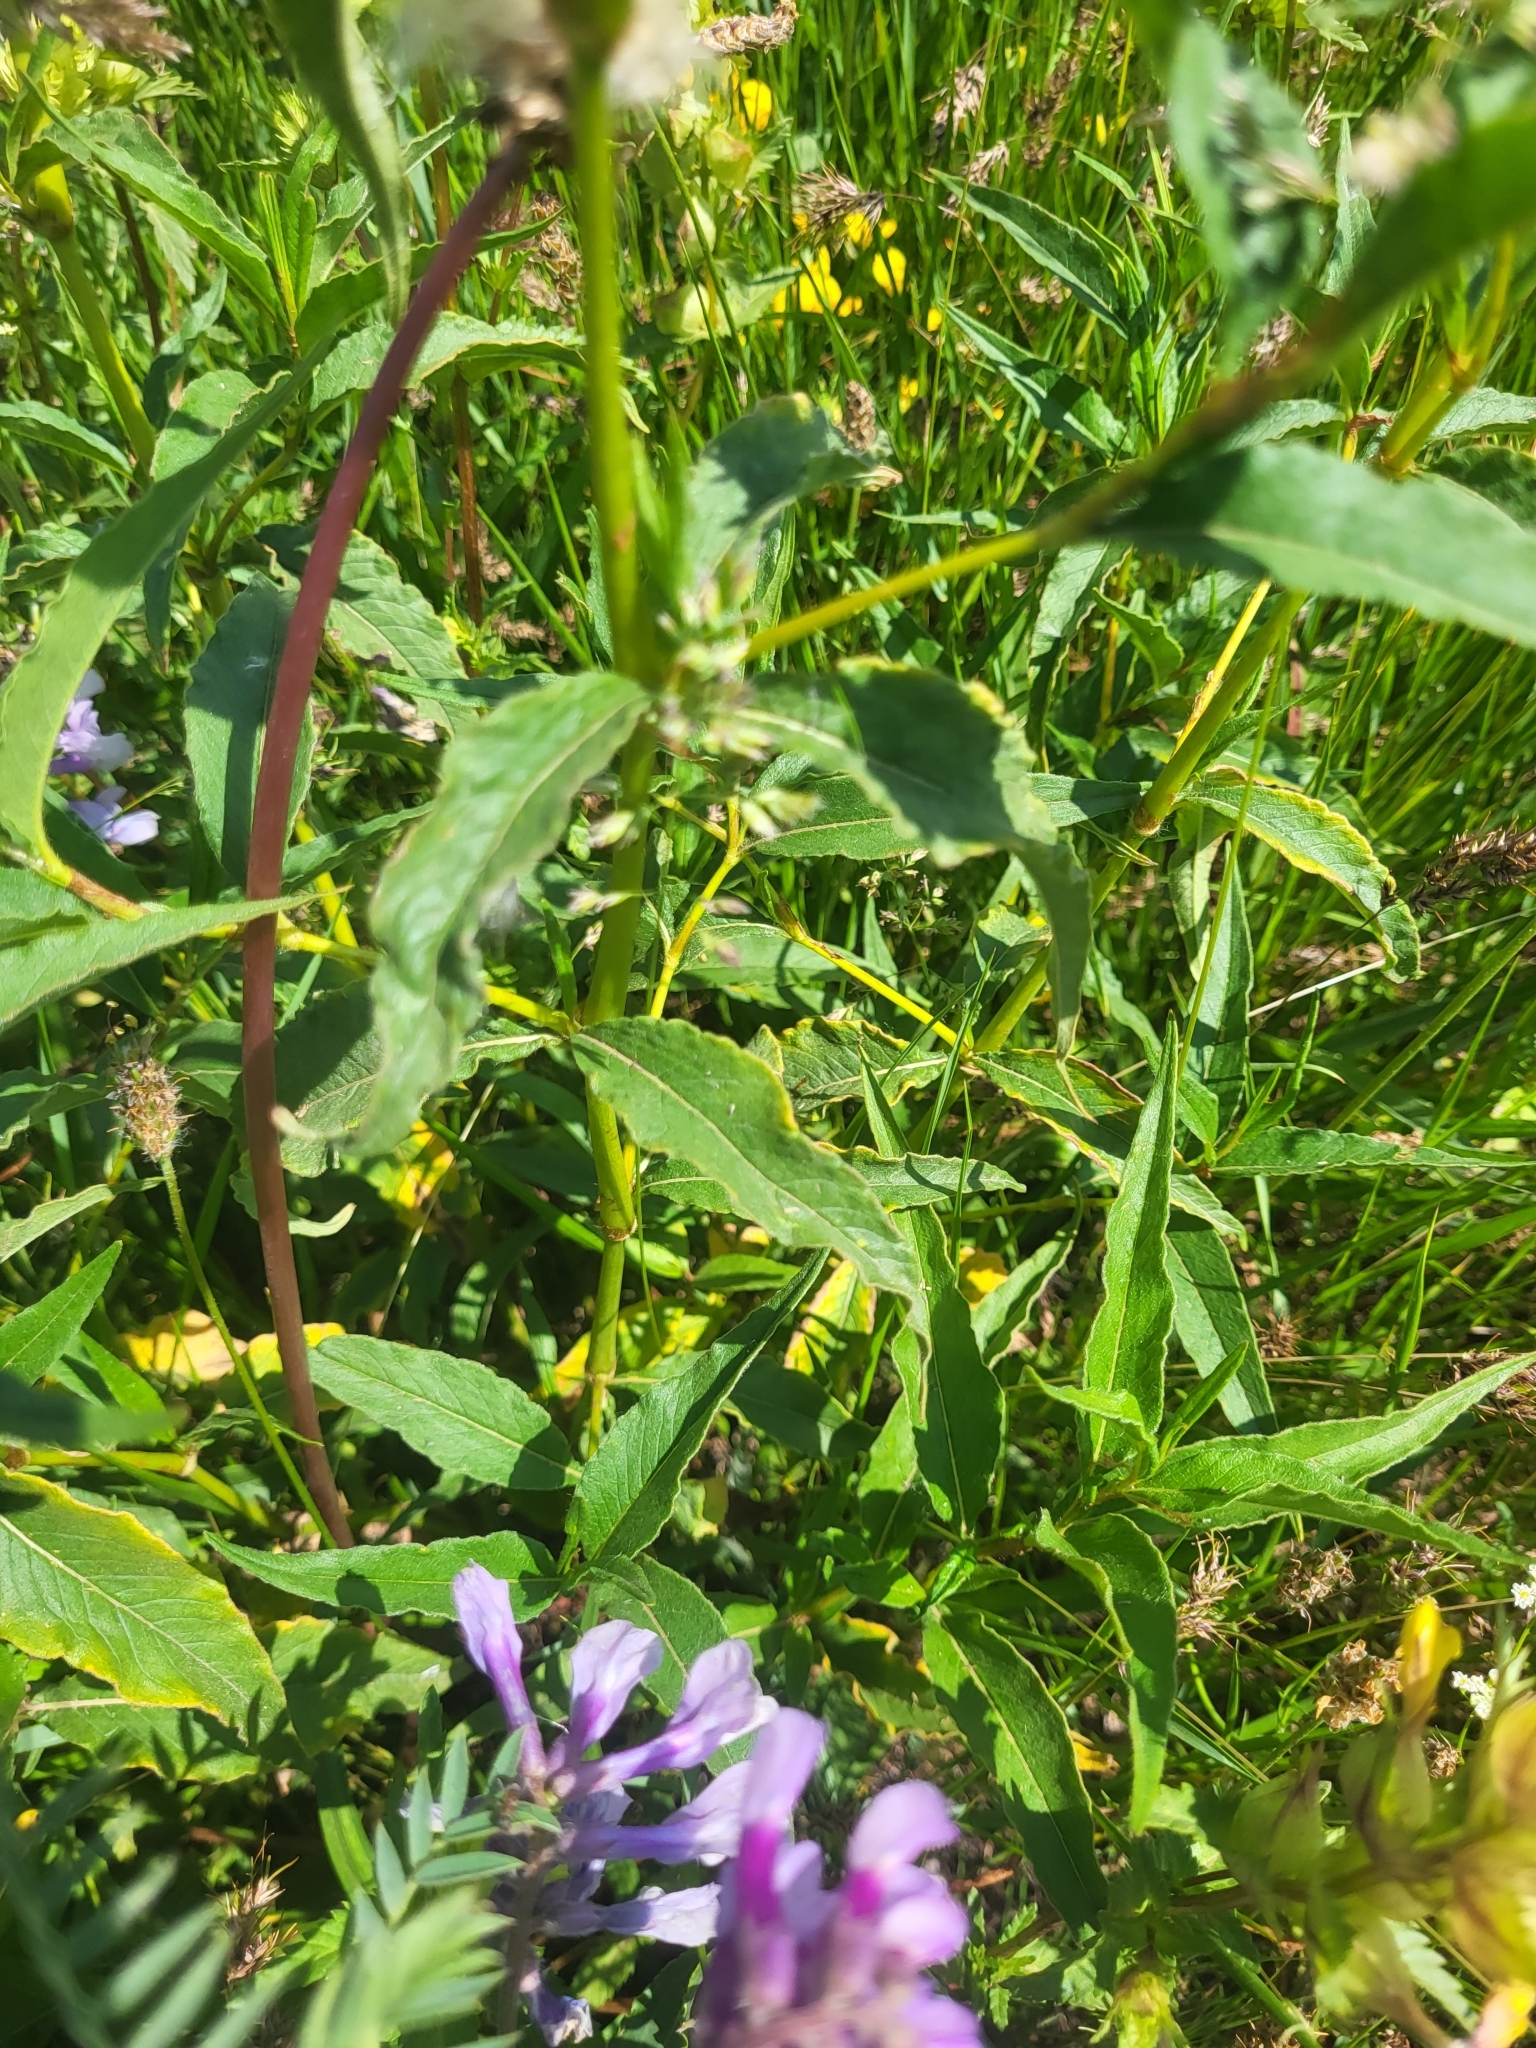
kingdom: Plantae
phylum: Tracheophyta
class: Magnoliopsida
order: Caryophyllales
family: Polygonaceae
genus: Koenigia
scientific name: Koenigia alpina
